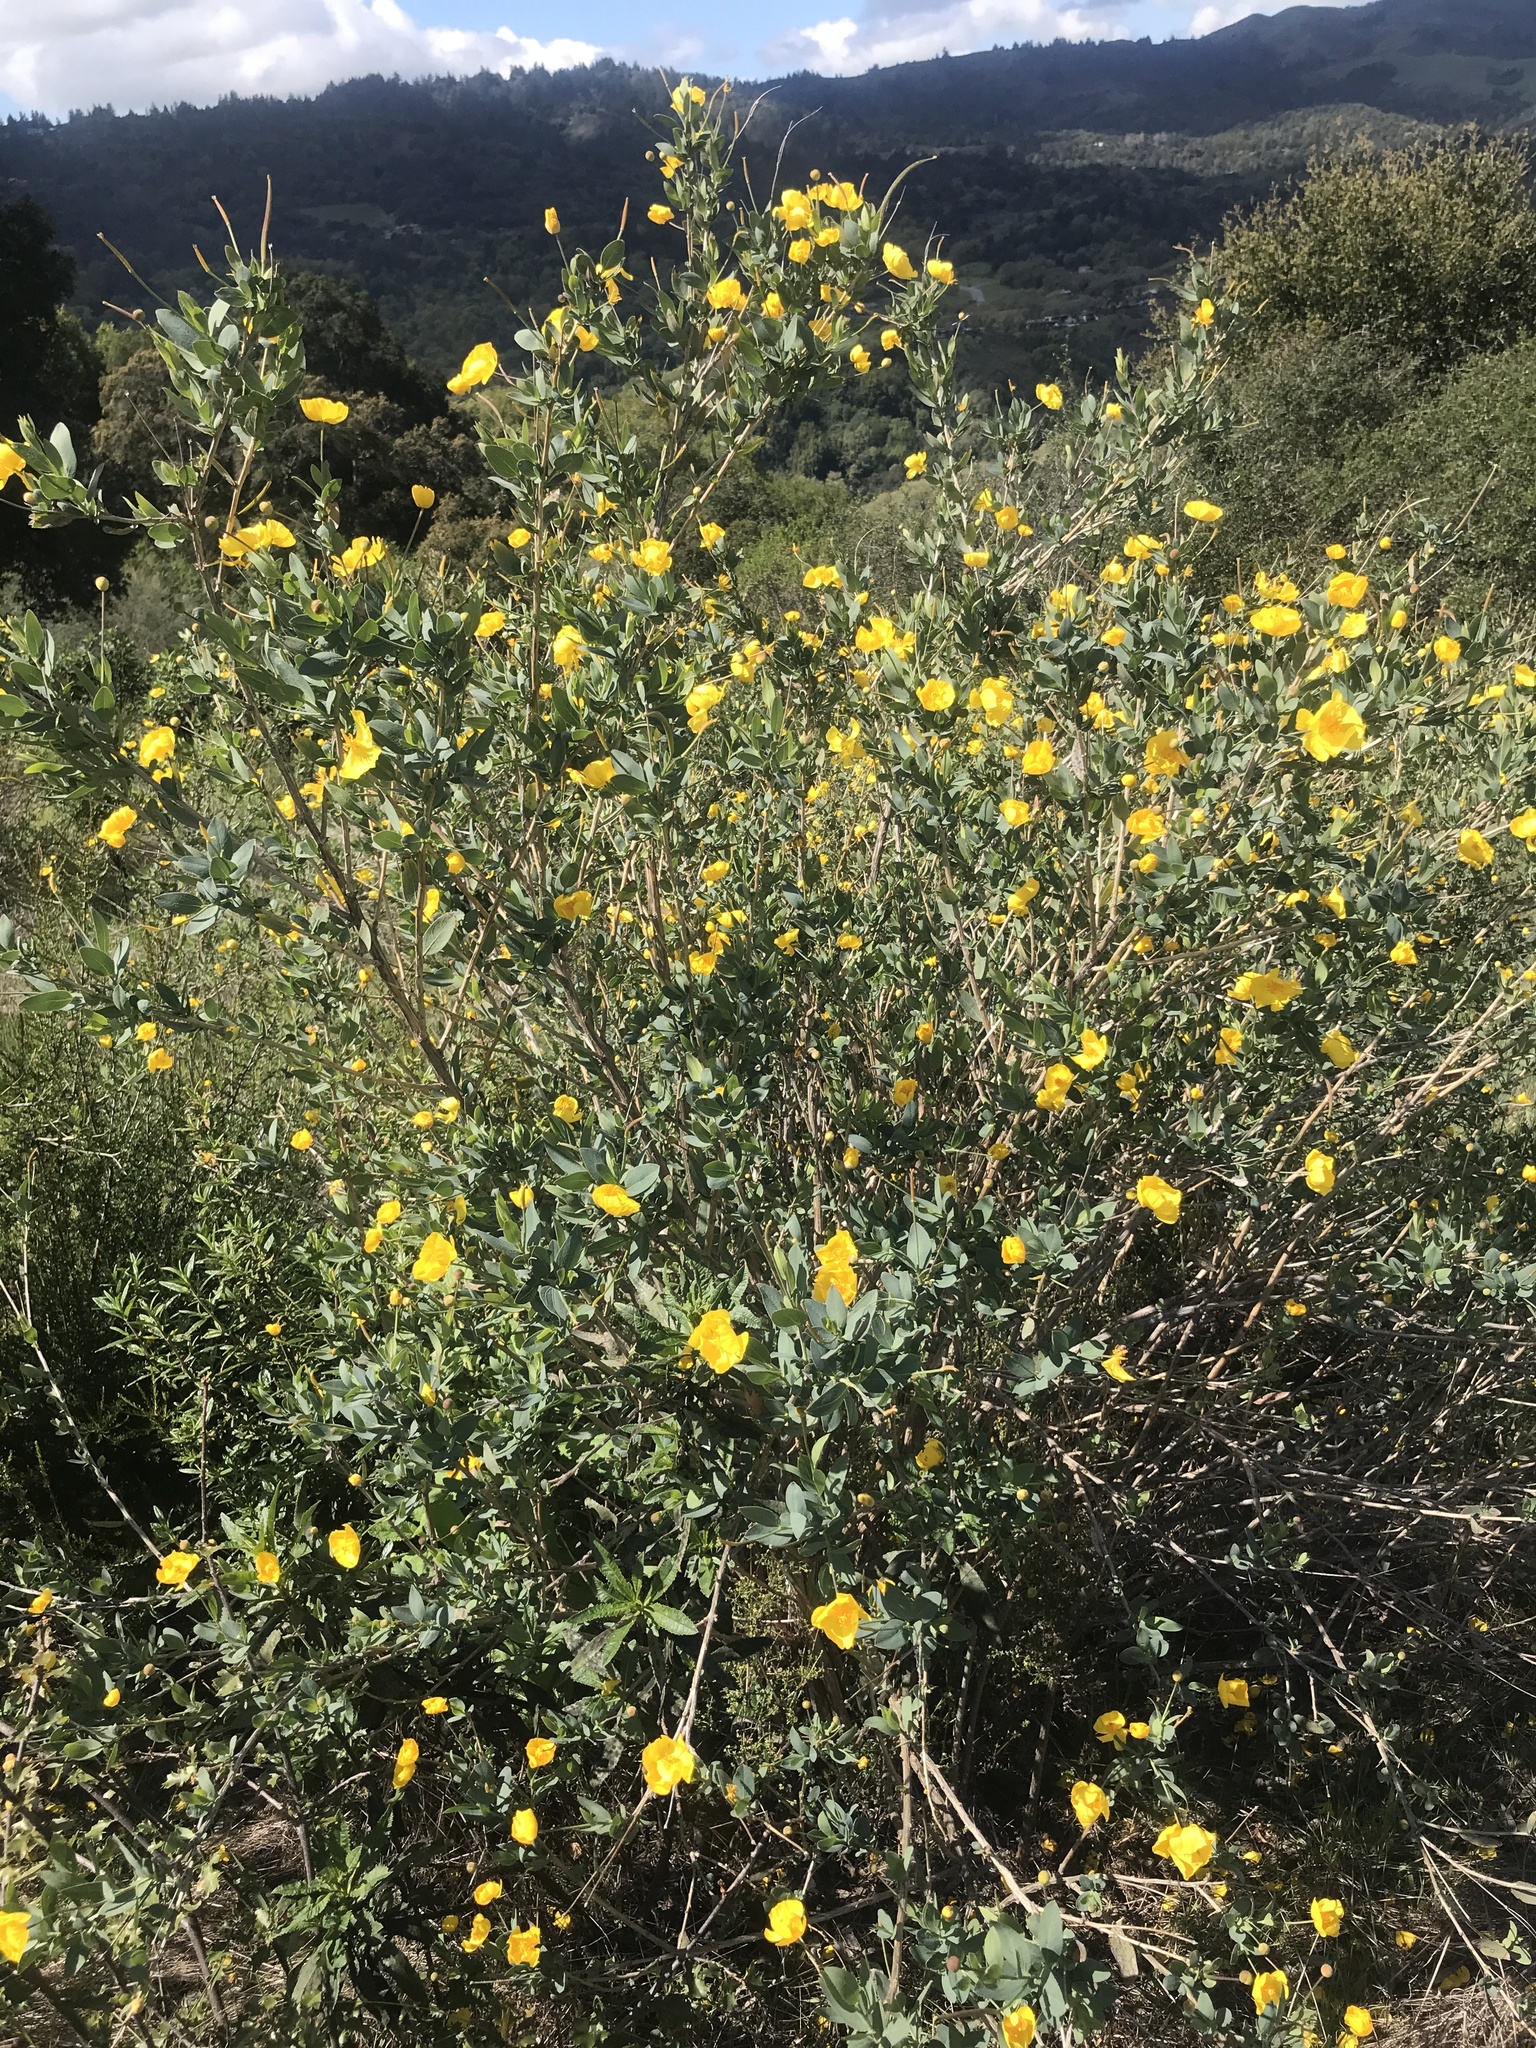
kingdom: Plantae
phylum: Tracheophyta
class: Magnoliopsida
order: Ranunculales
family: Papaveraceae
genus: Dendromecon
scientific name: Dendromecon rigida
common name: Tree poppy
